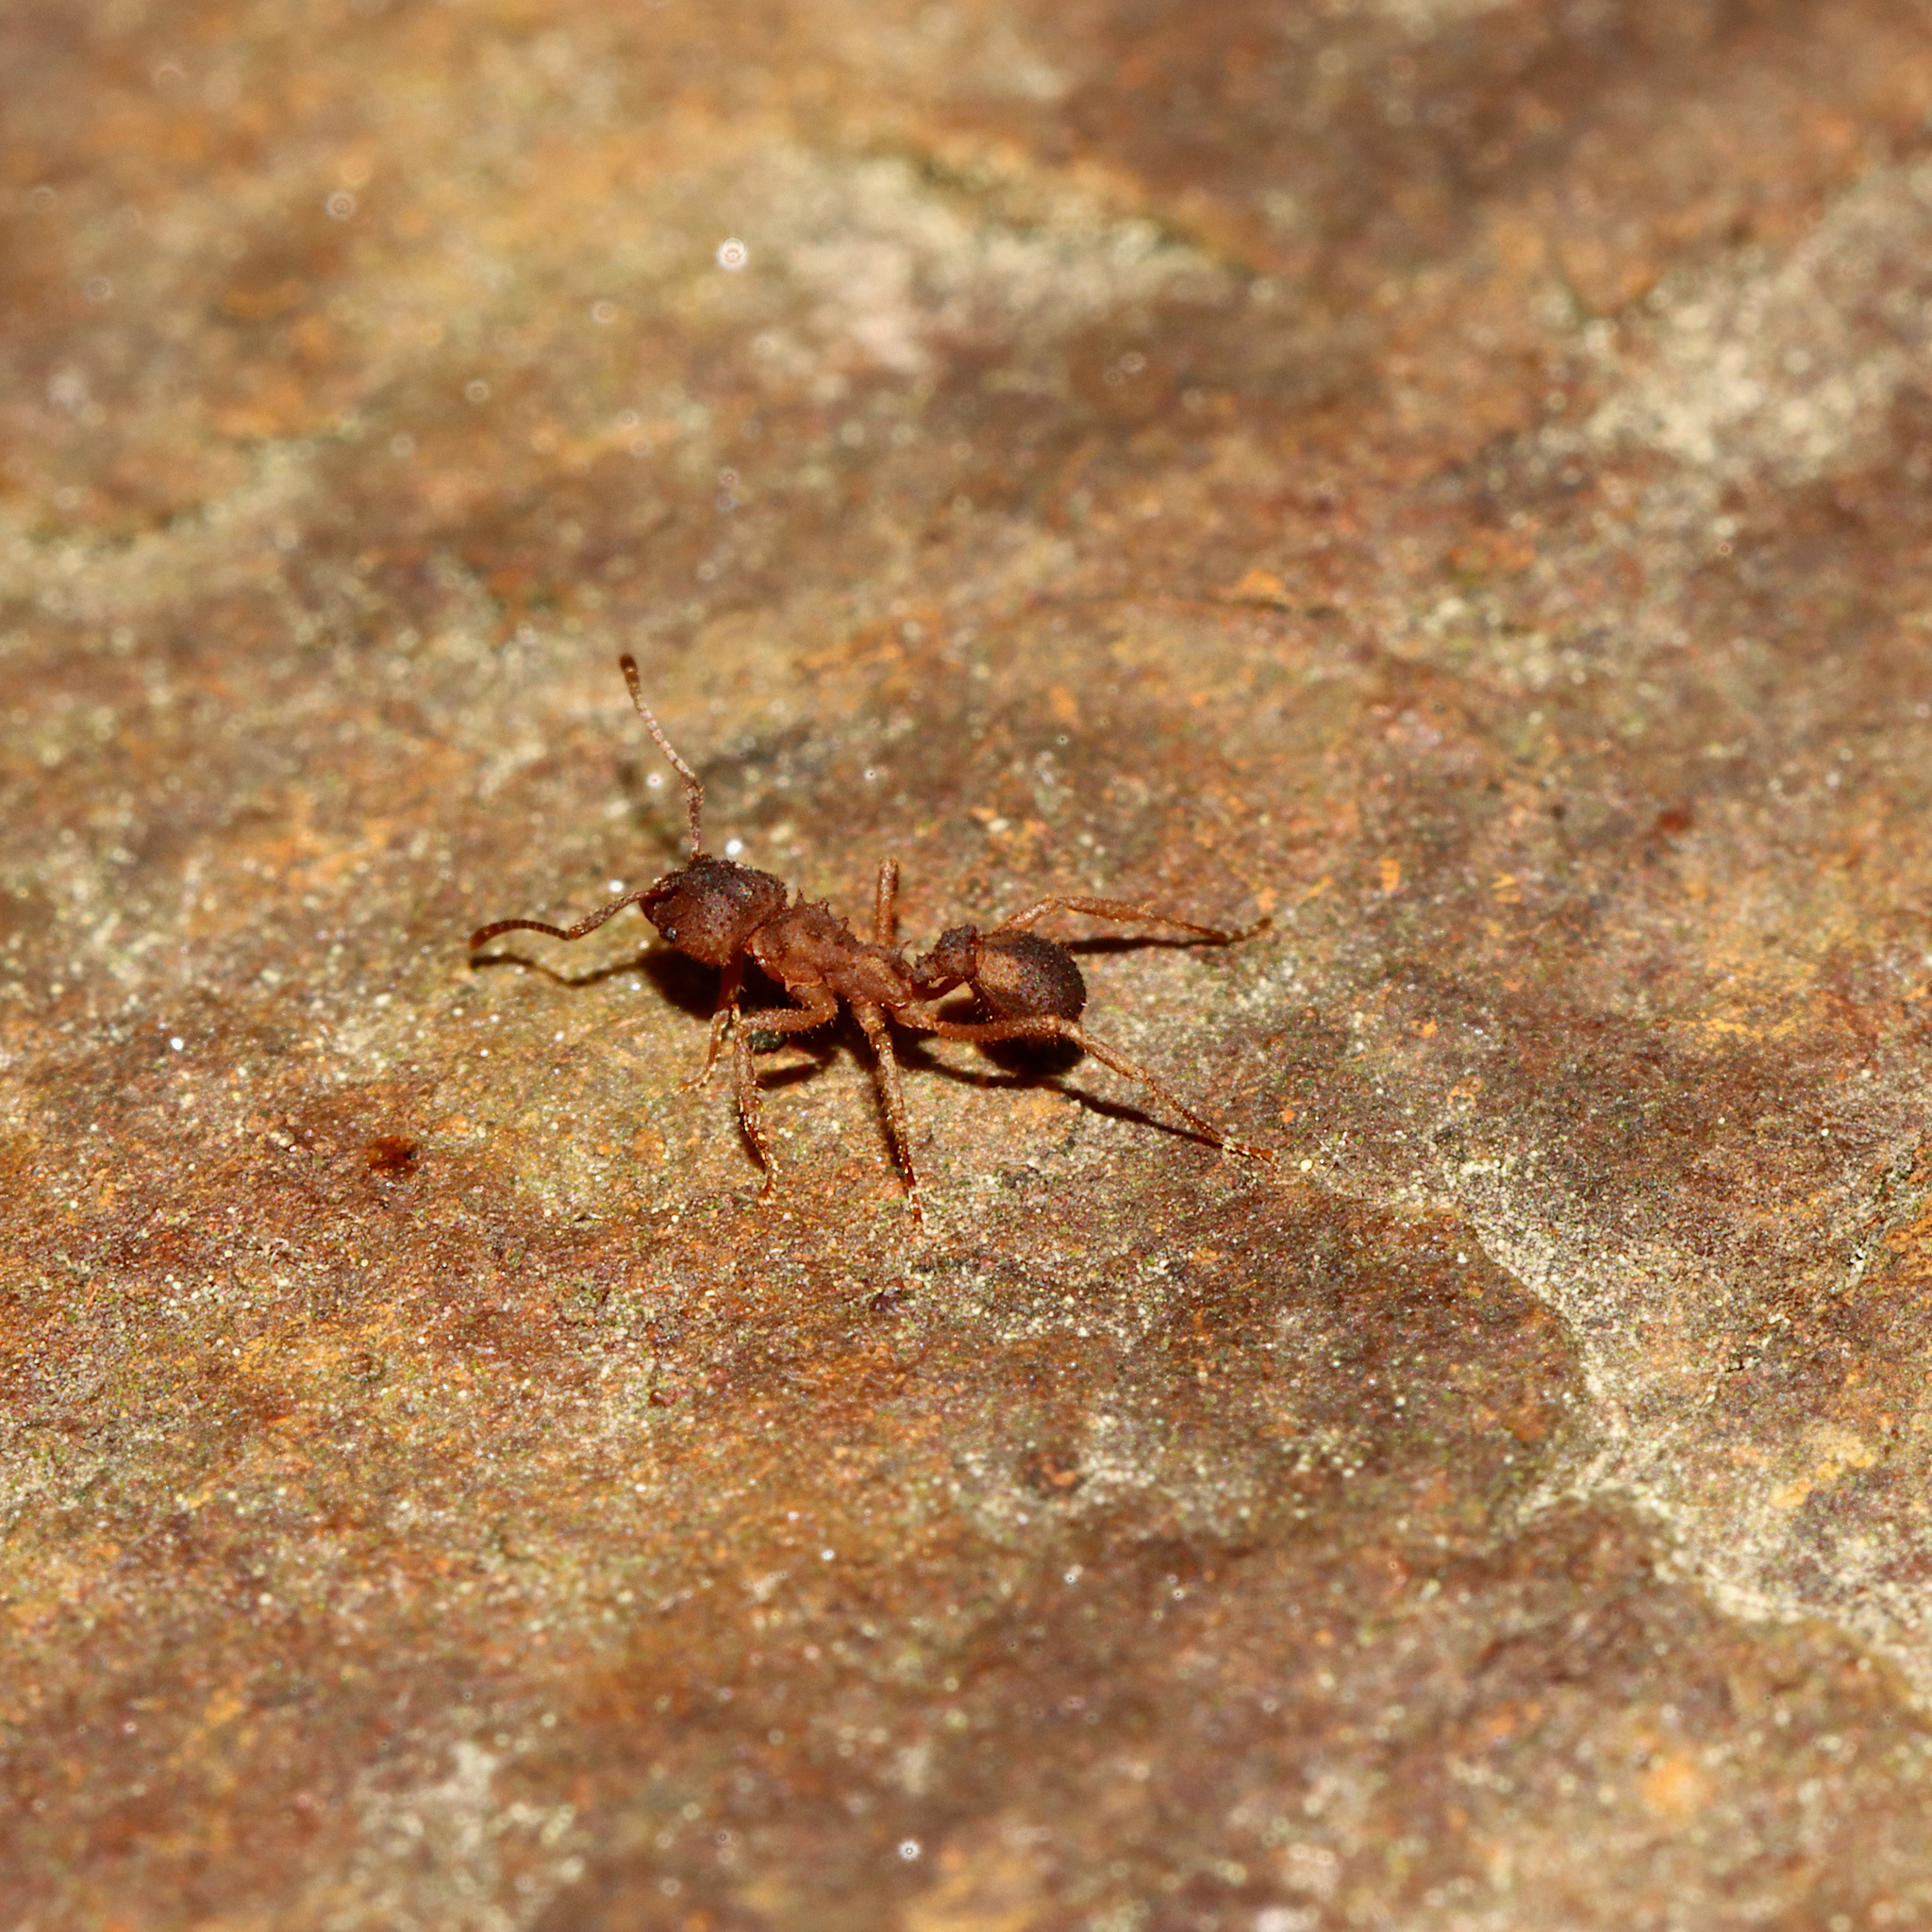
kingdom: Animalia
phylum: Arthropoda
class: Insecta
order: Hymenoptera
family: Formicidae
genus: Trachymyrmex
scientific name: Trachymyrmex septentrionalis
